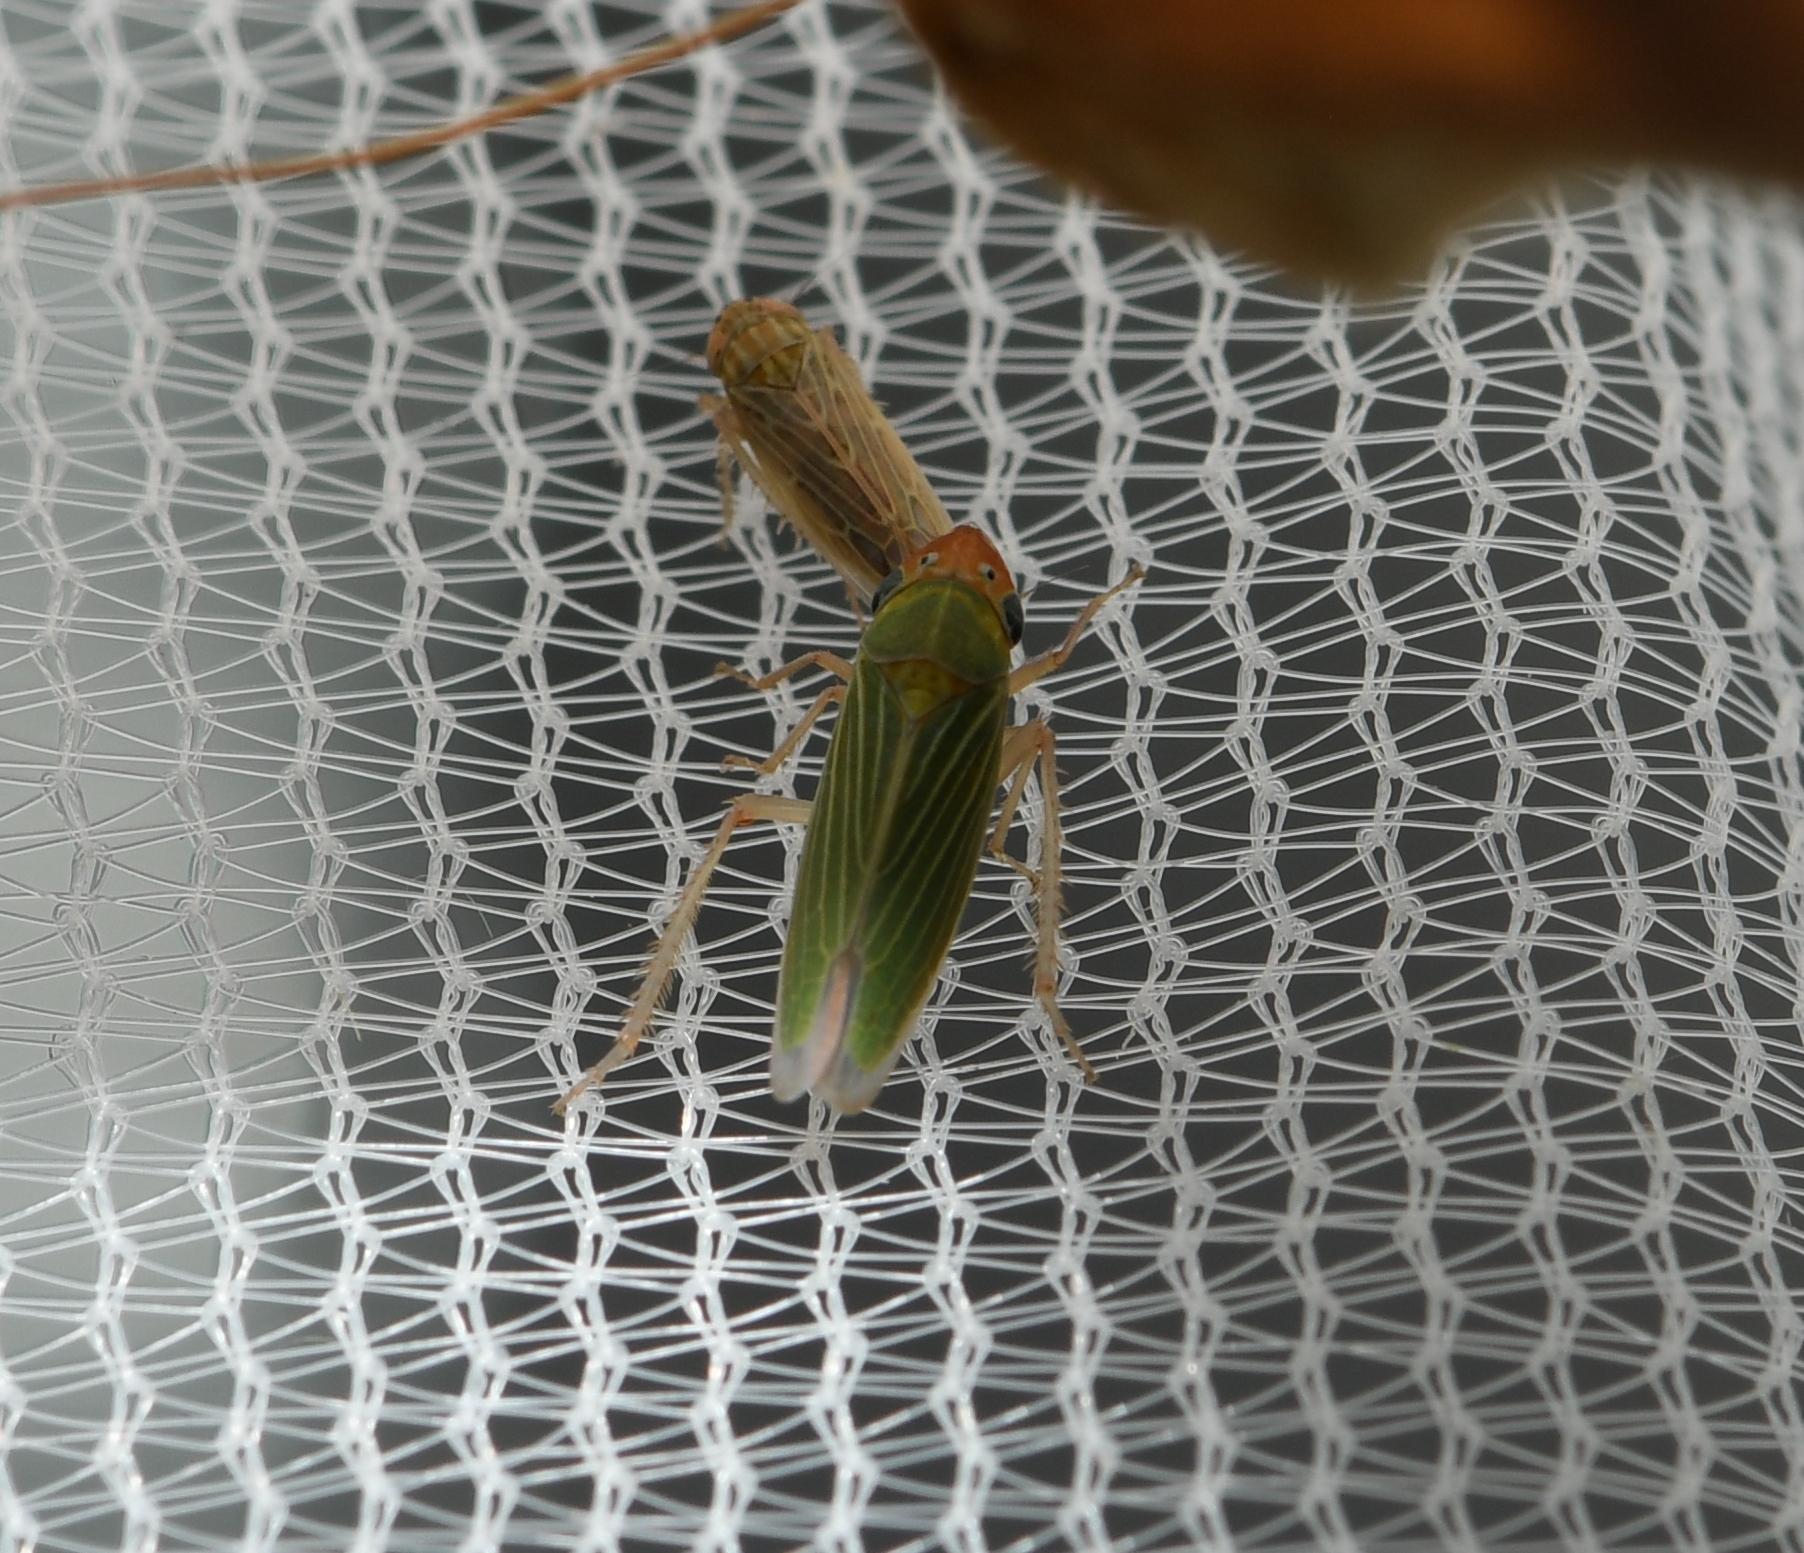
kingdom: Animalia
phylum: Arthropoda
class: Insecta
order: Hemiptera
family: Cicadellidae
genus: Xyphon
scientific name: Xyphon nudum
